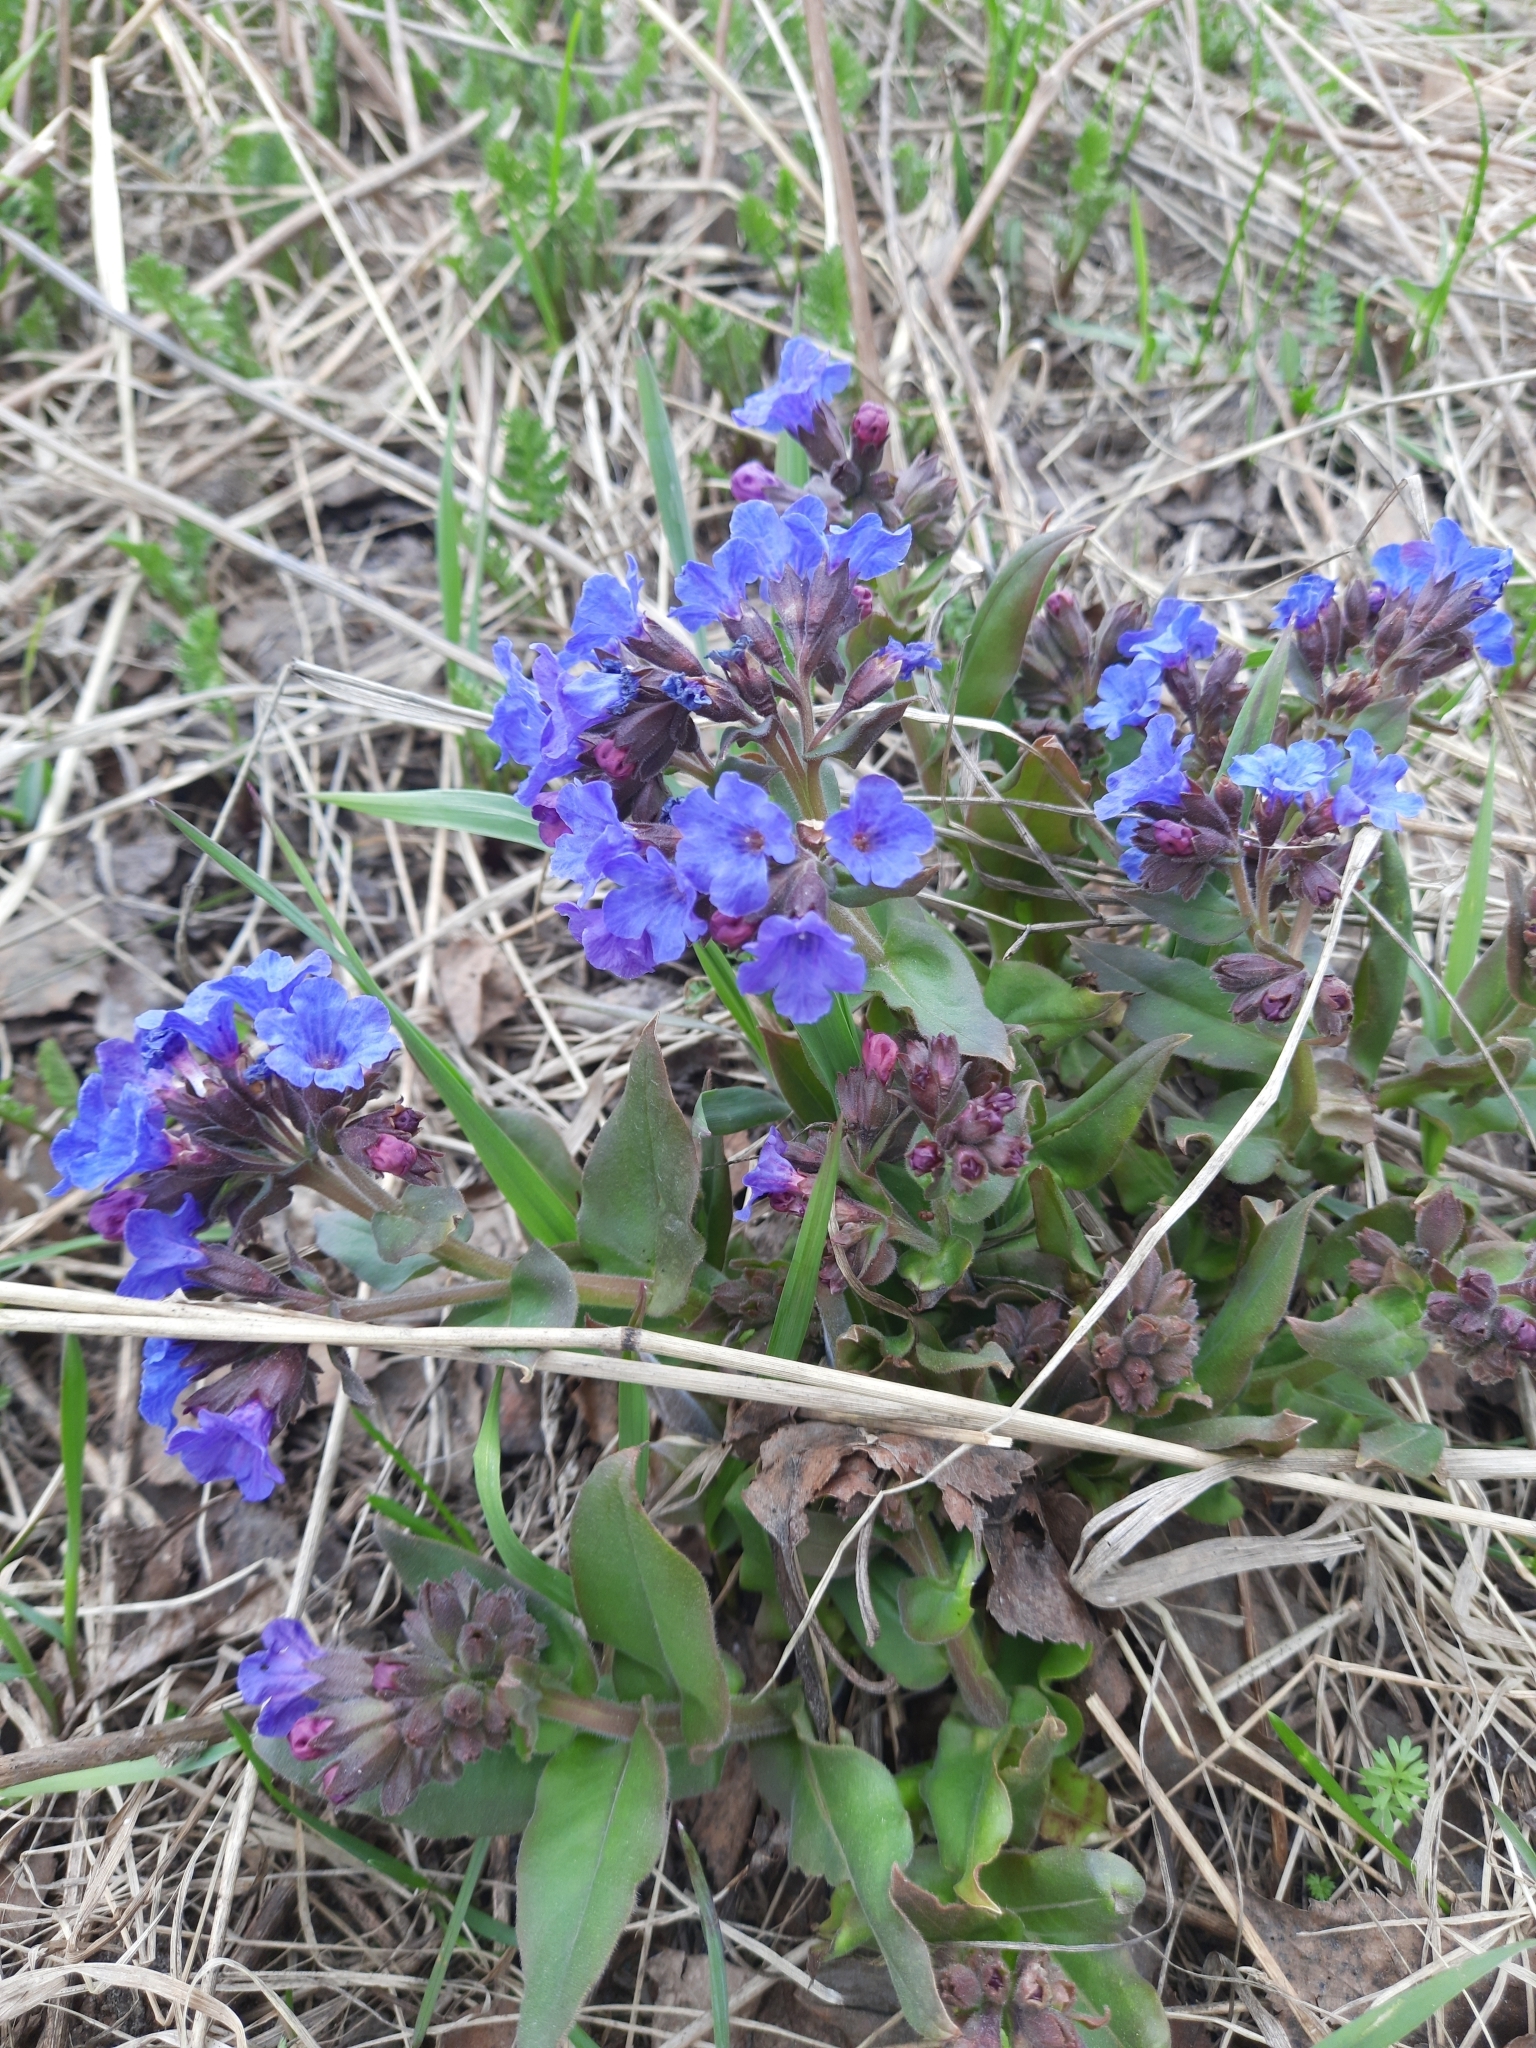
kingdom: Plantae
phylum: Tracheophyta
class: Magnoliopsida
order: Boraginales
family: Boraginaceae
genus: Pulmonaria
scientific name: Pulmonaria mollis
